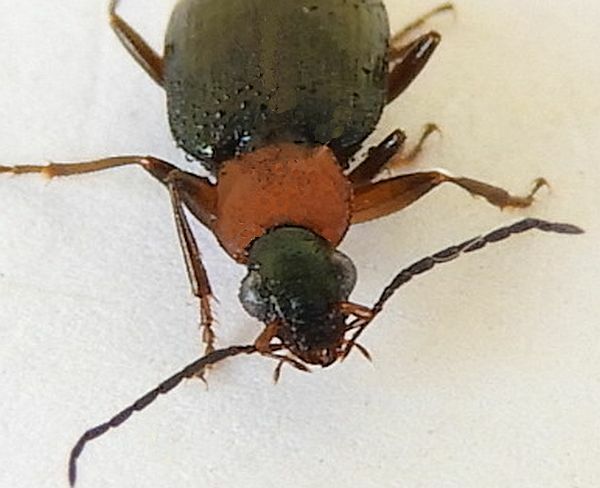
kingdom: Animalia
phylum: Arthropoda
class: Insecta
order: Coleoptera
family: Carabidae
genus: Agonum
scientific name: Agonum decorum
